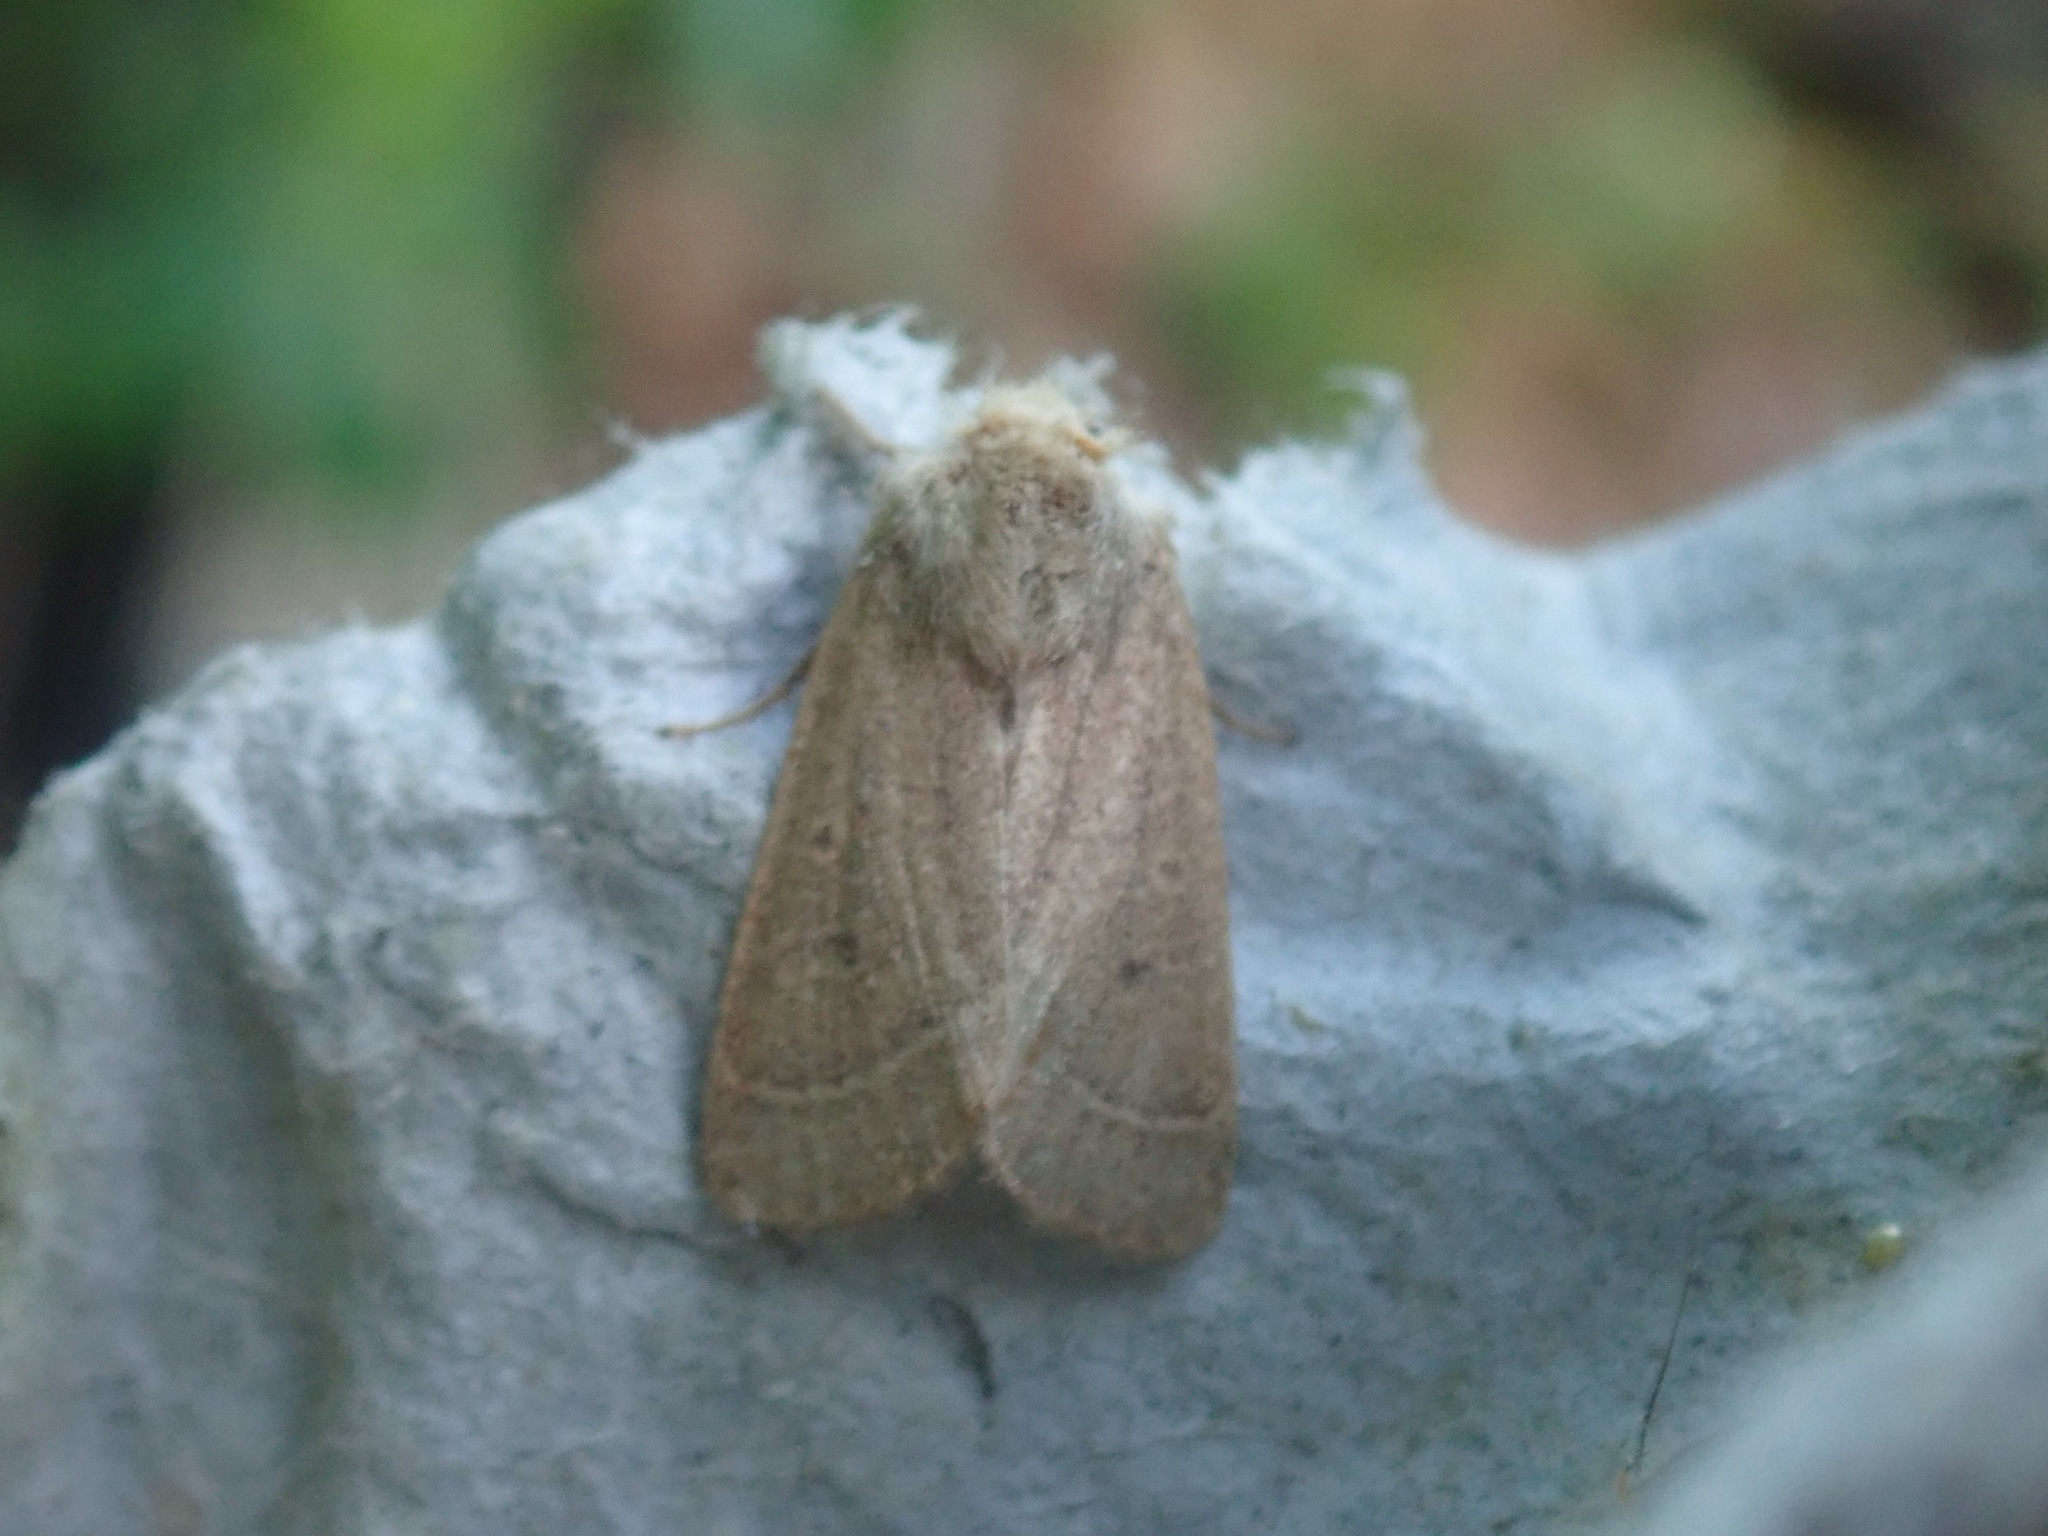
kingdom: Animalia
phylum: Arthropoda
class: Insecta
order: Lepidoptera
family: Noctuidae
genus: Ulolonche
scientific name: Ulolonche culea
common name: Sheathed quaker
